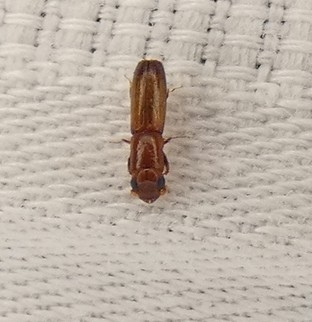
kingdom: Animalia
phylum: Arthropoda
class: Insecta
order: Coleoptera
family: Curculionidae
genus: Euplatypus
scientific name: Euplatypus compositus
